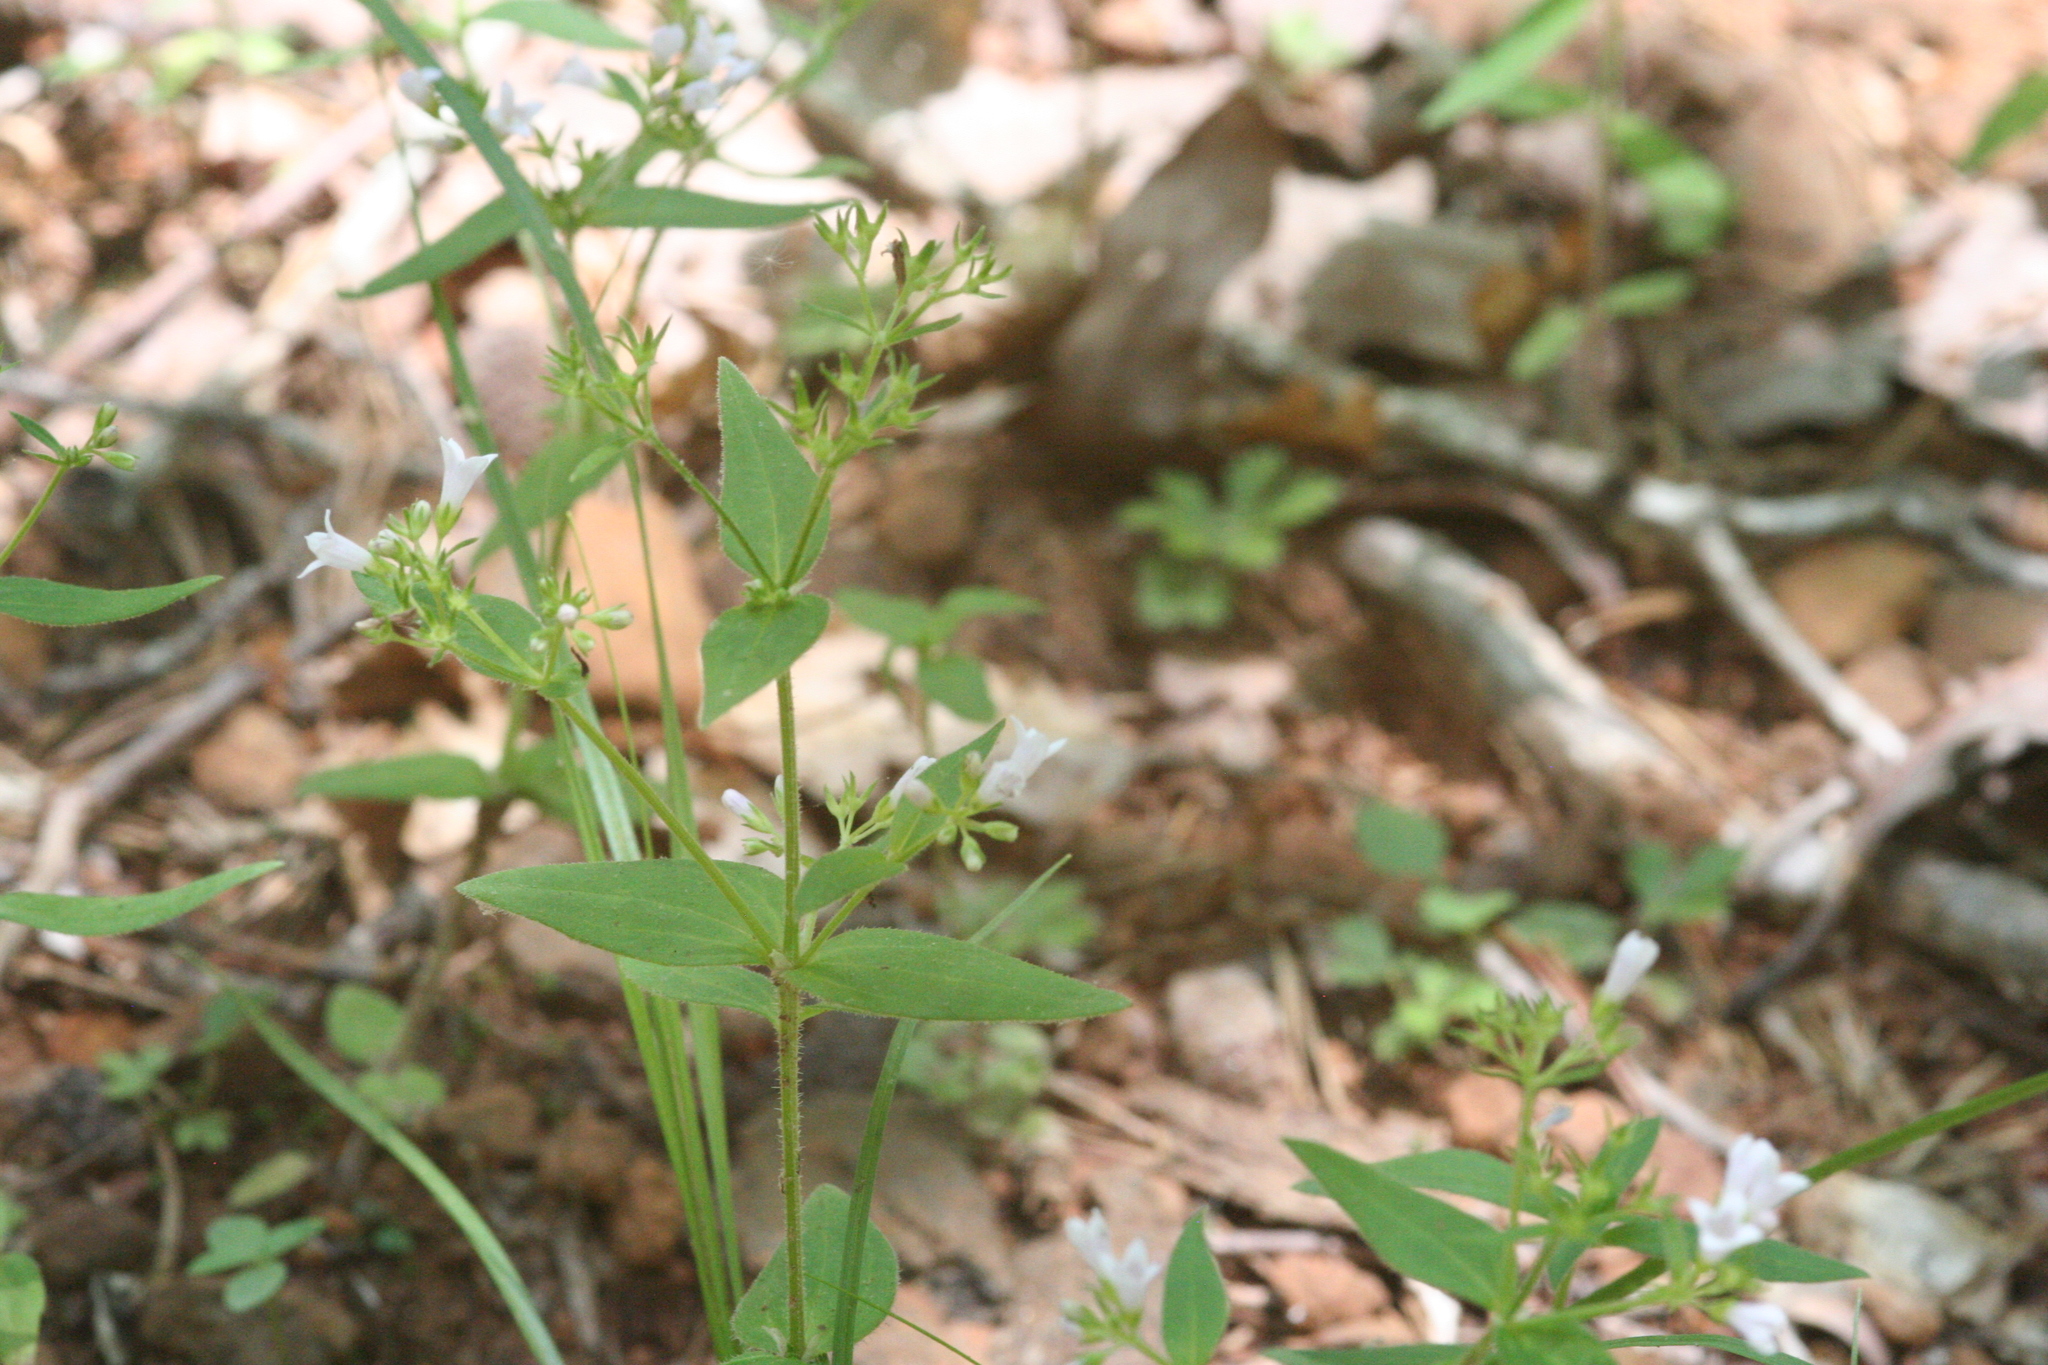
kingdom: Plantae
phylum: Tracheophyta
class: Magnoliopsida
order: Gentianales
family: Rubiaceae
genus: Houstonia
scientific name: Houstonia purpurea
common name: Summer bluet
